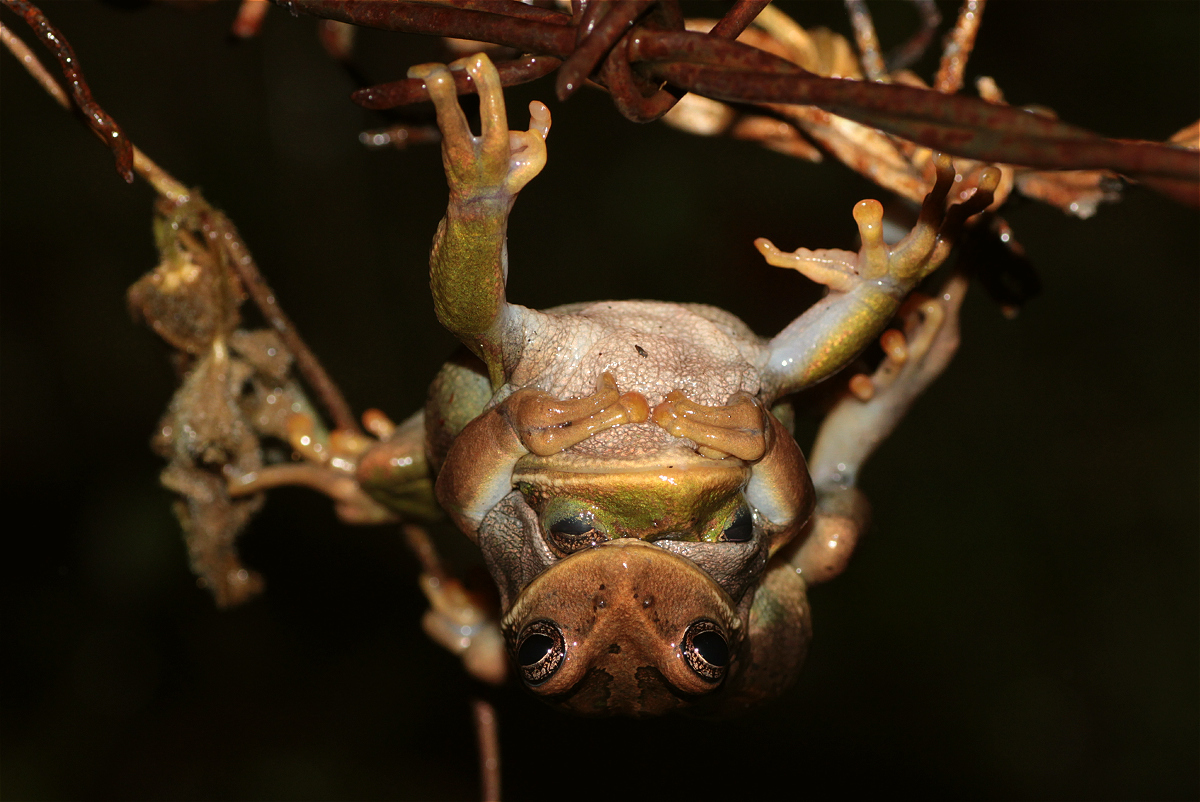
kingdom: Animalia
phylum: Chordata
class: Amphibia
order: Anura
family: Hemiphractidae
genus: Gastrotheca
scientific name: Gastrotheca cuencana
